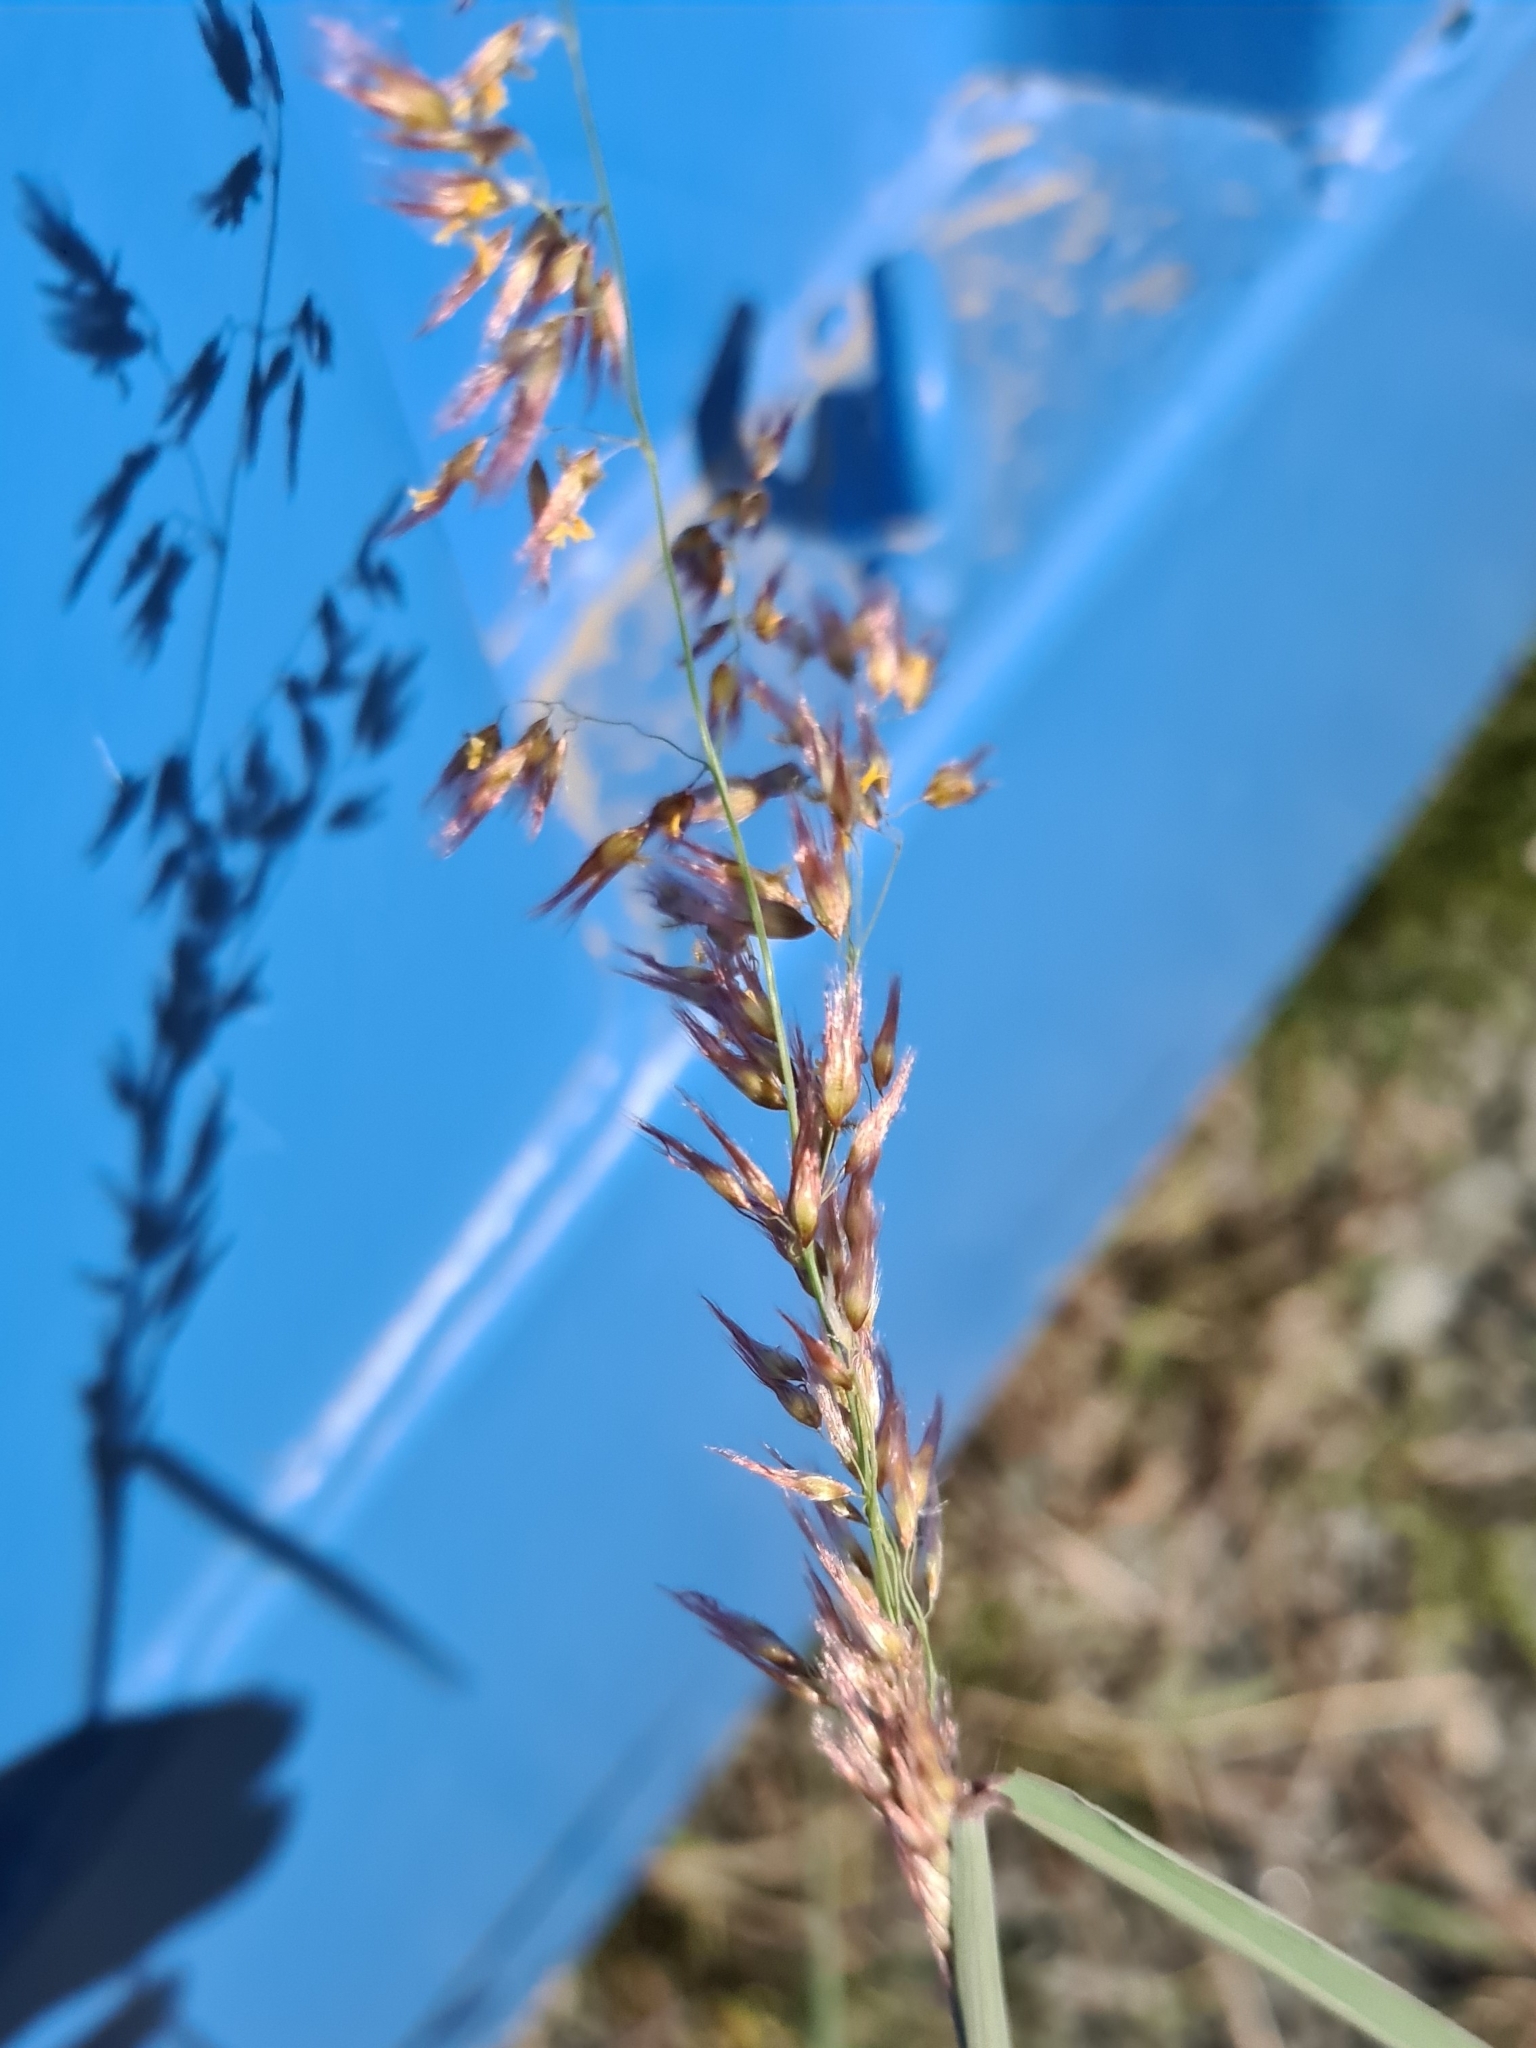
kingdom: Plantae
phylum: Tracheophyta
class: Liliopsida
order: Poales
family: Poaceae
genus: Melinis
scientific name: Melinis repens
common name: Rose natal grass
